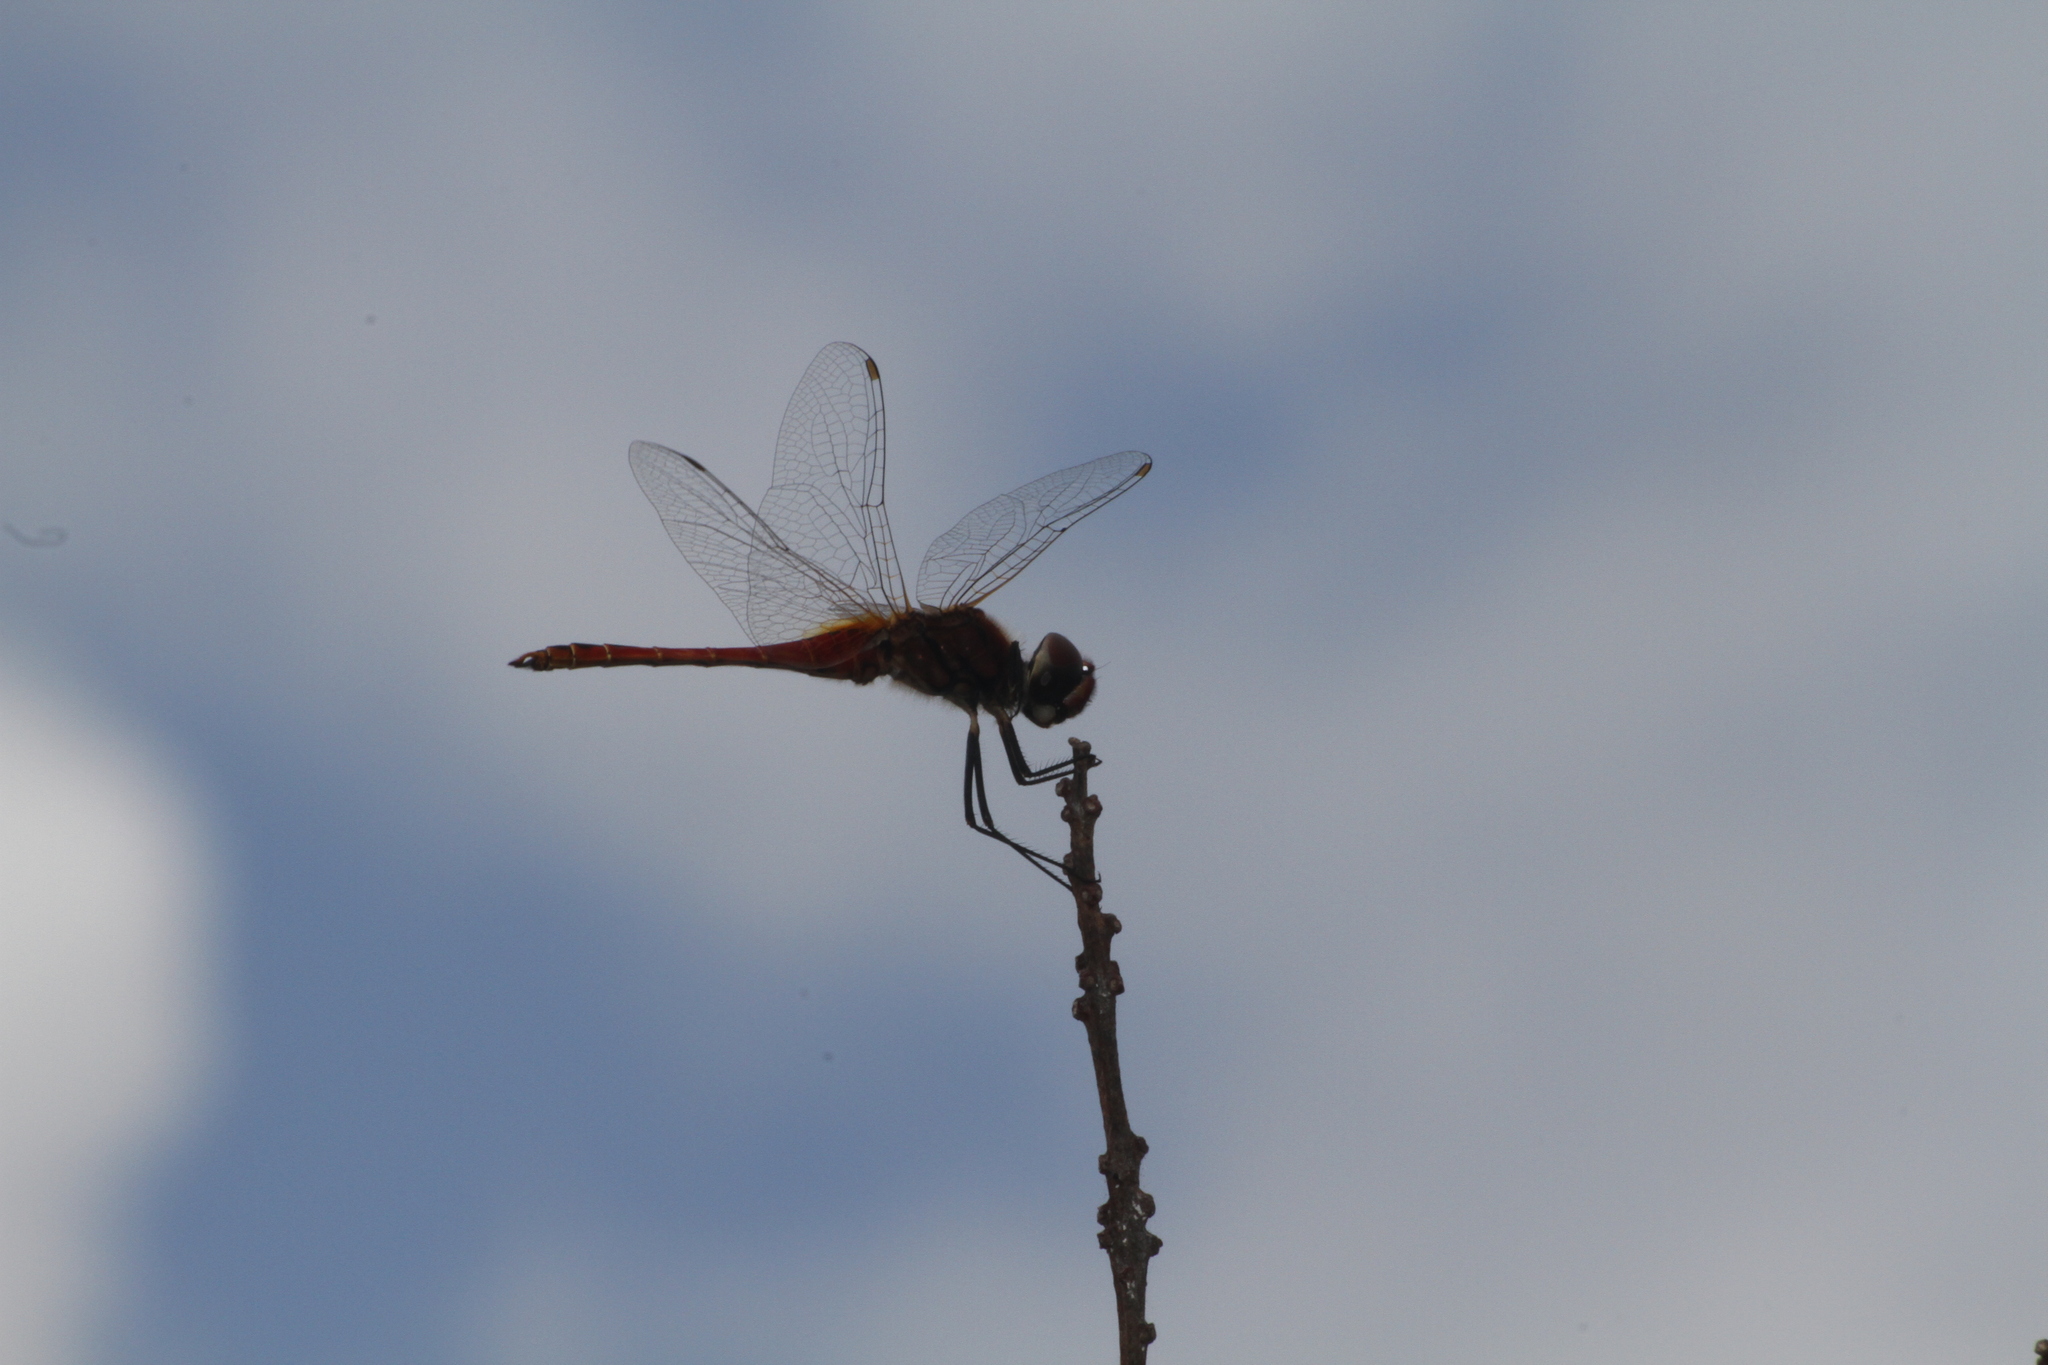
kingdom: Animalia
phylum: Arthropoda
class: Insecta
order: Odonata
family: Libellulidae
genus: Macrodiplax
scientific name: Macrodiplax cora
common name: Coastal glider
